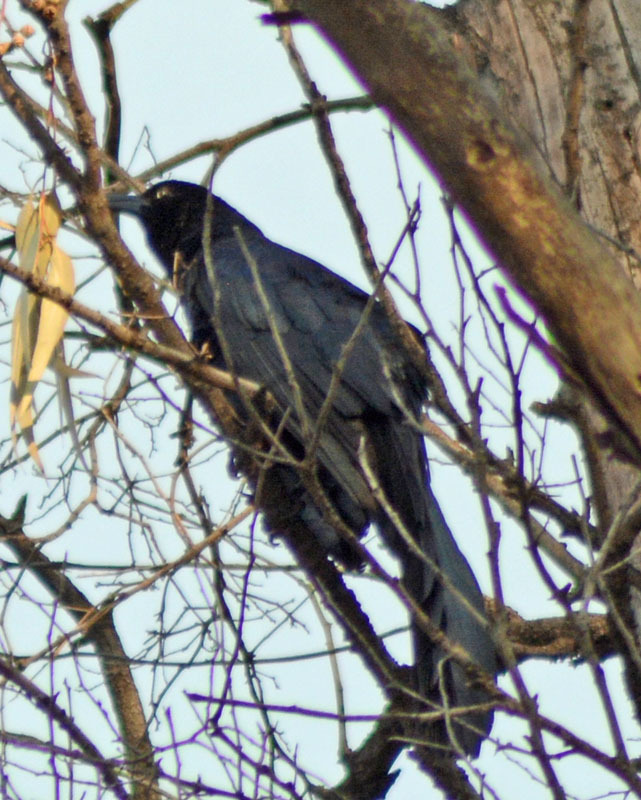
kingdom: Animalia
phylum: Chordata
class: Aves
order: Passeriformes
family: Icteridae
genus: Quiscalus
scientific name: Quiscalus mexicanus
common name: Great-tailed grackle
